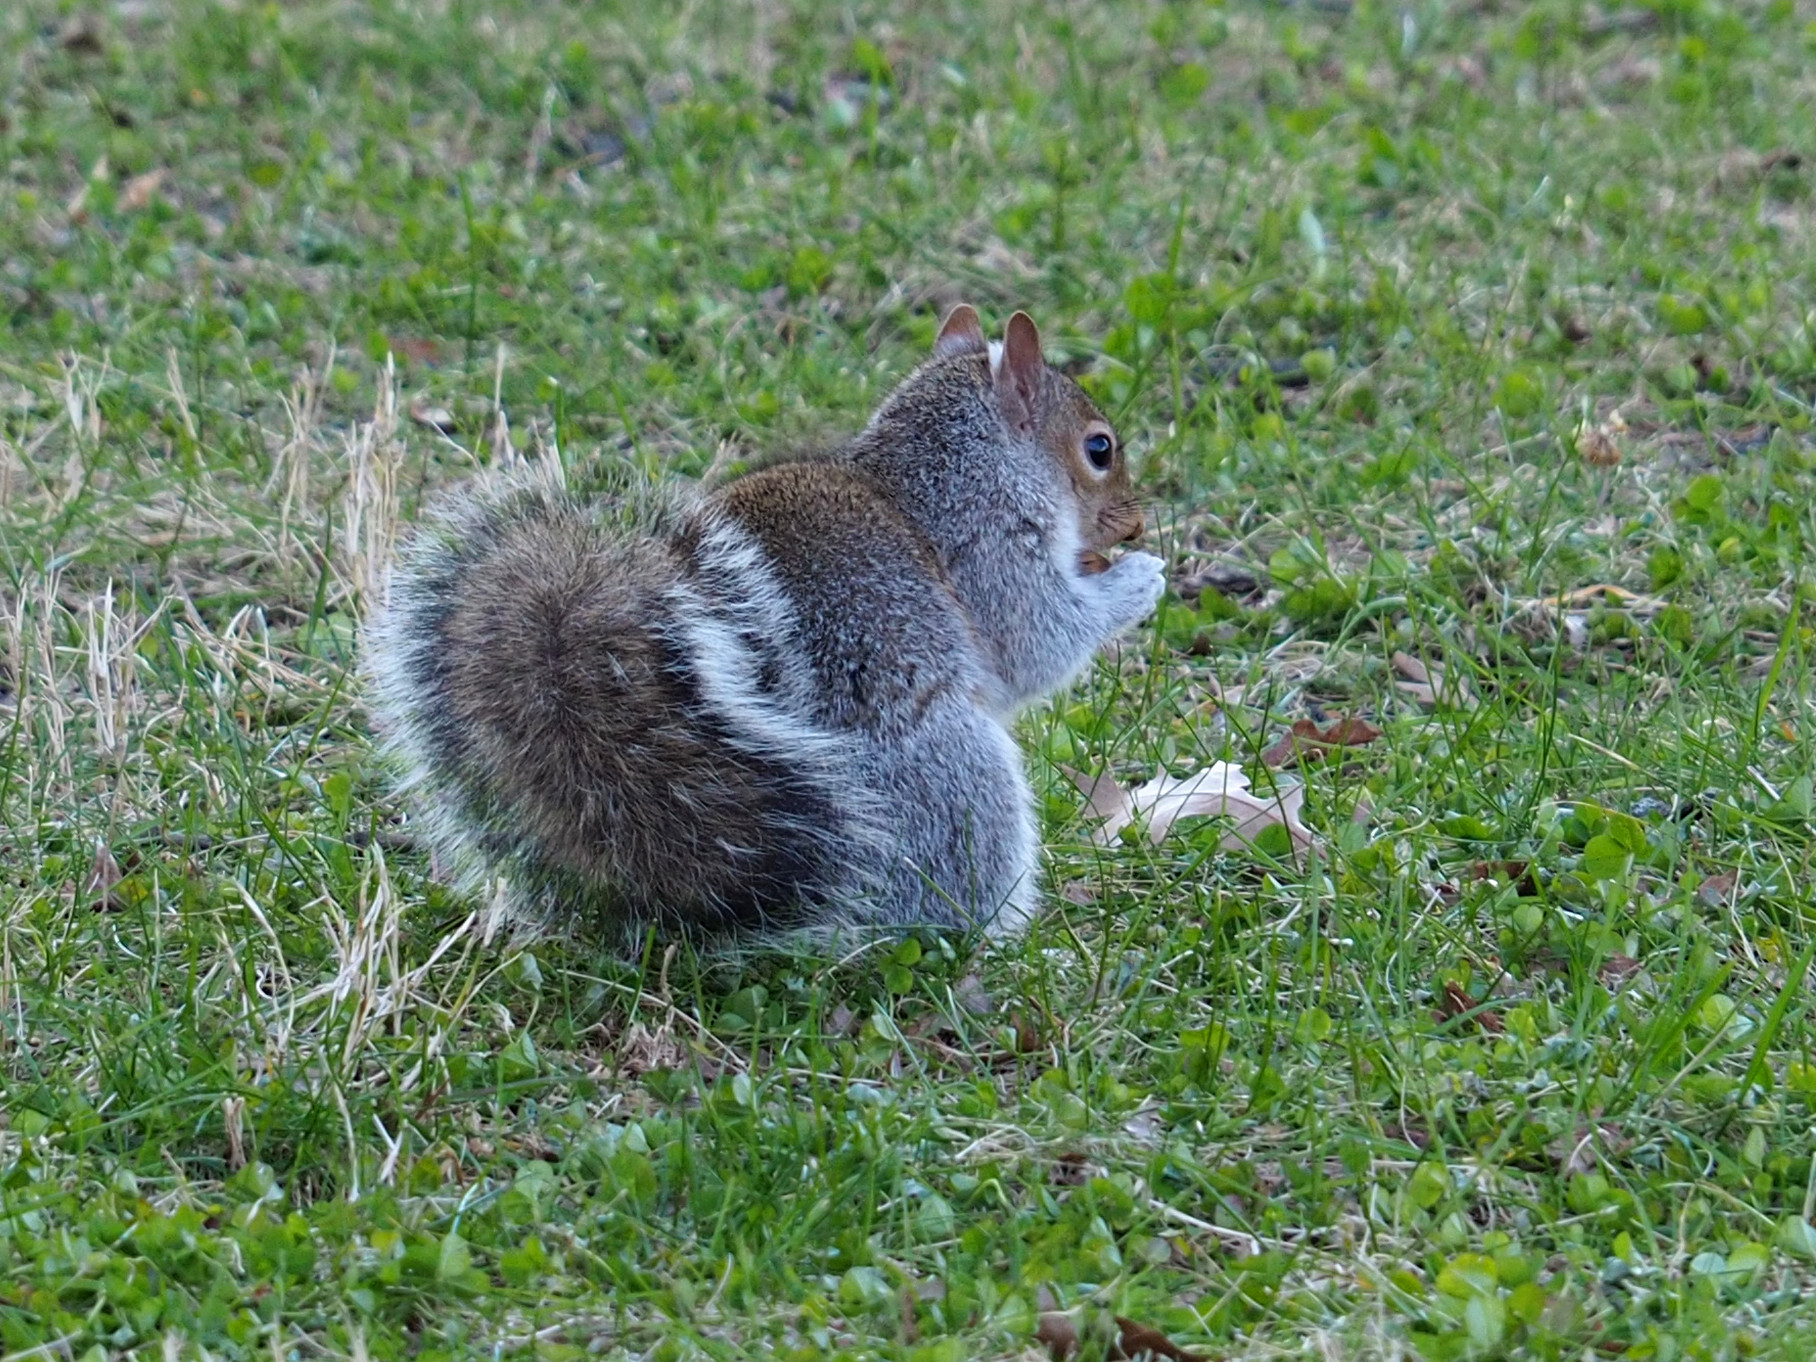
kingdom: Animalia
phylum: Chordata
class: Mammalia
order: Rodentia
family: Sciuridae
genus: Sciurus
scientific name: Sciurus carolinensis
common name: Eastern gray squirrel
